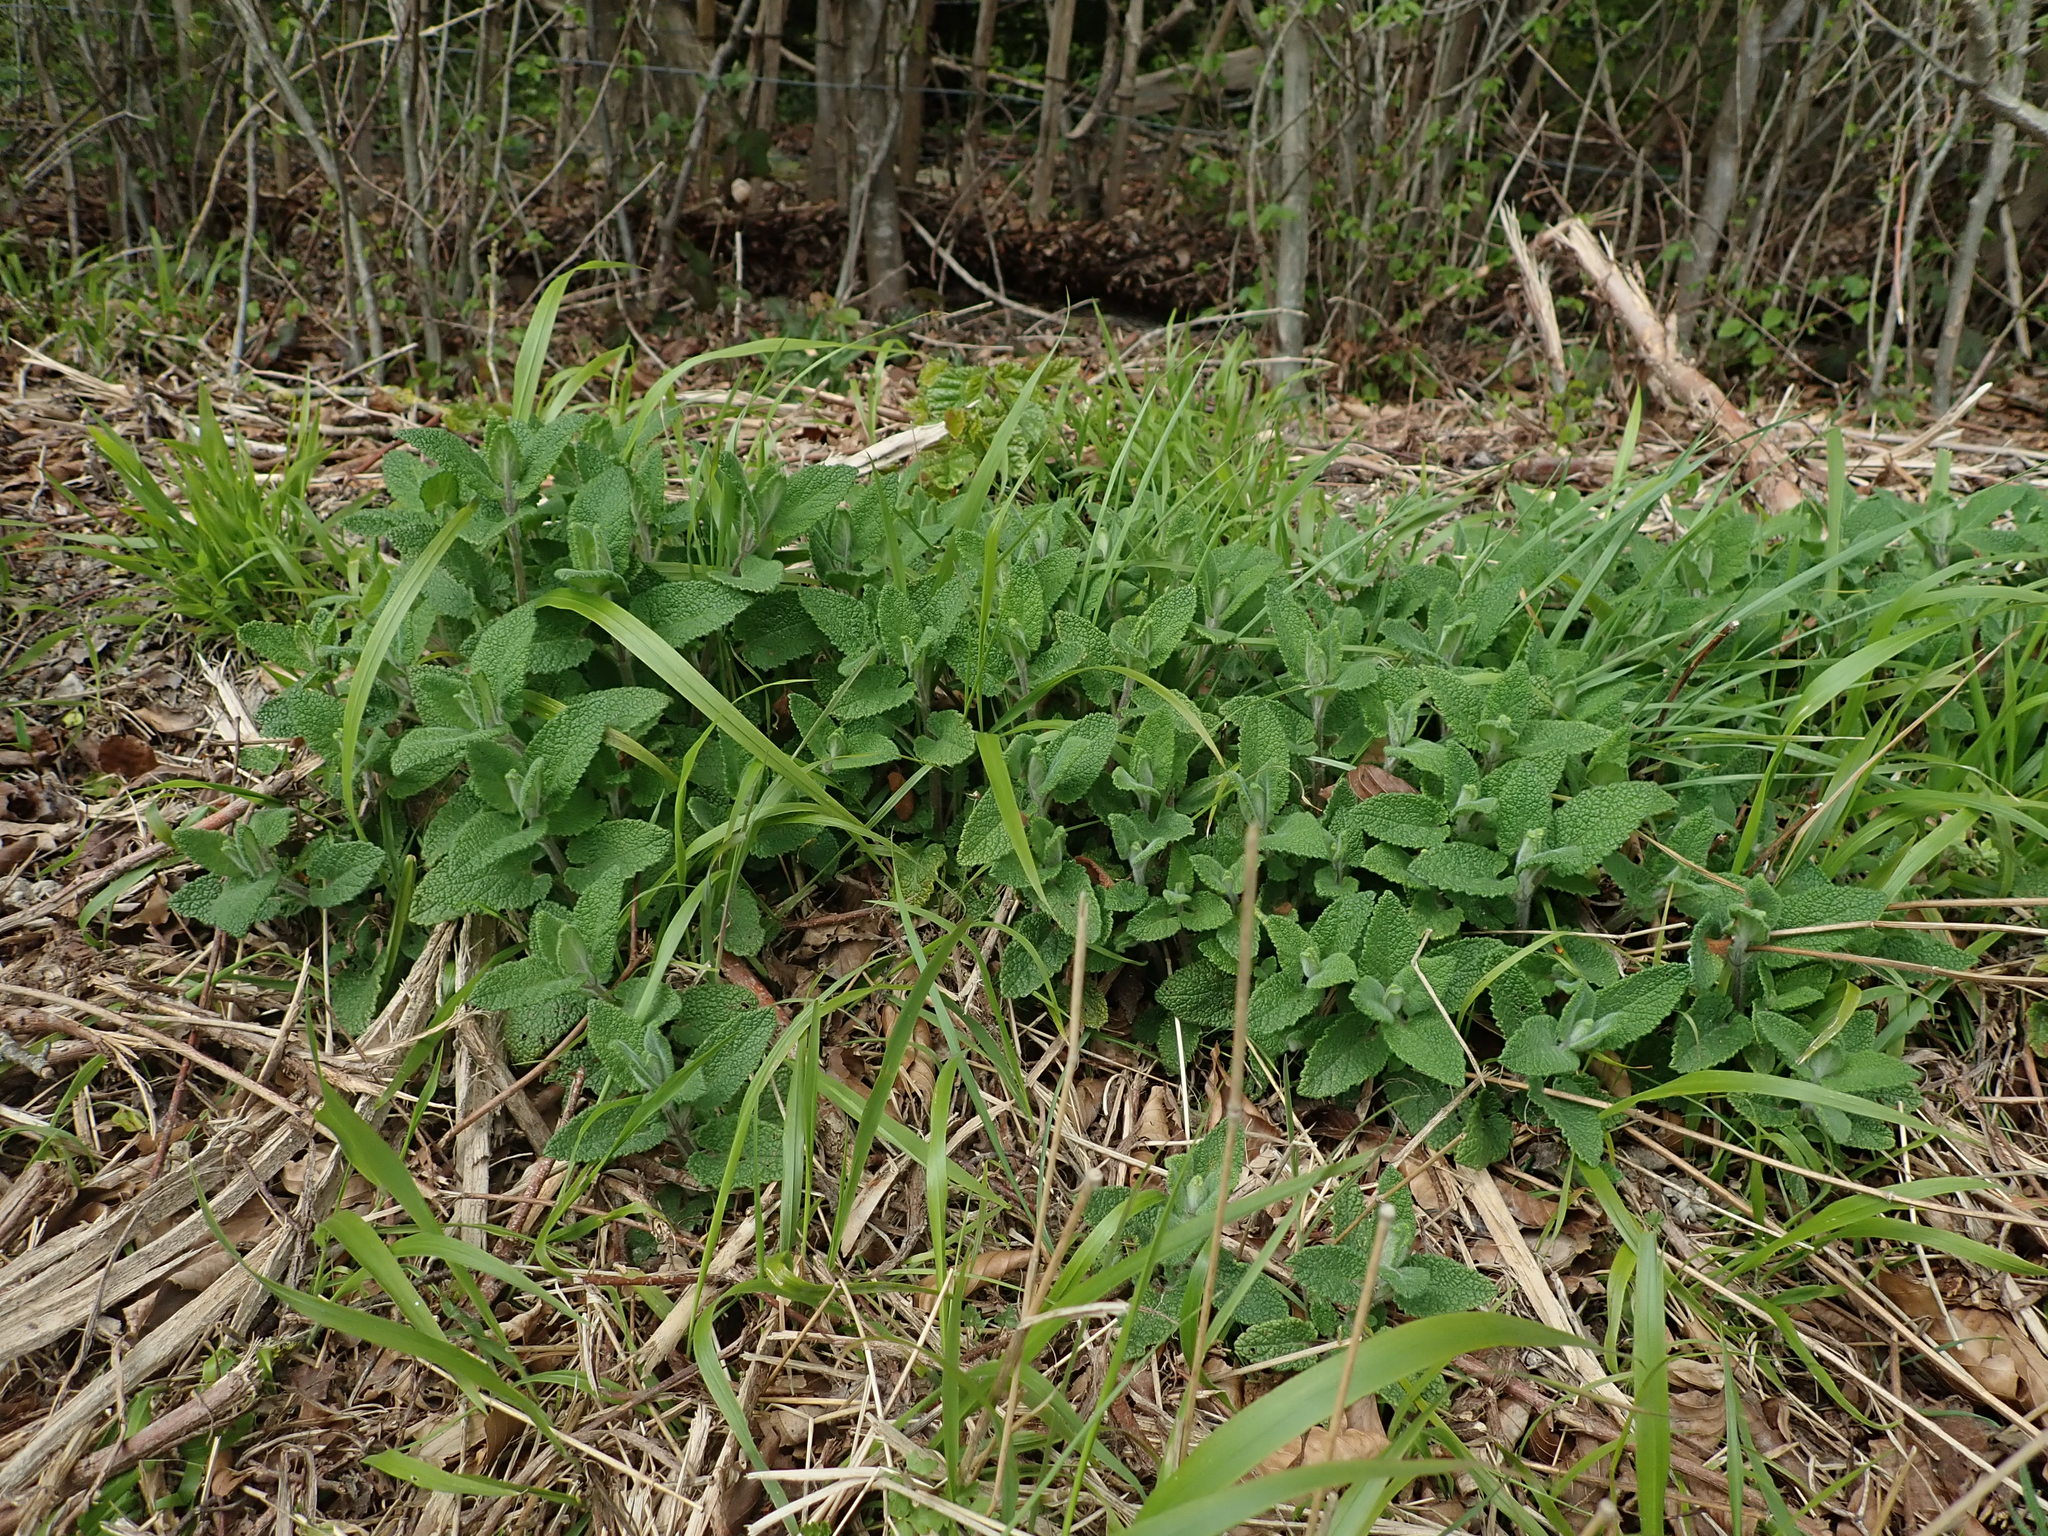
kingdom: Plantae
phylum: Tracheophyta
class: Magnoliopsida
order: Lamiales
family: Lamiaceae
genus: Teucrium
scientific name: Teucrium scorodonia
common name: Woodland germander
